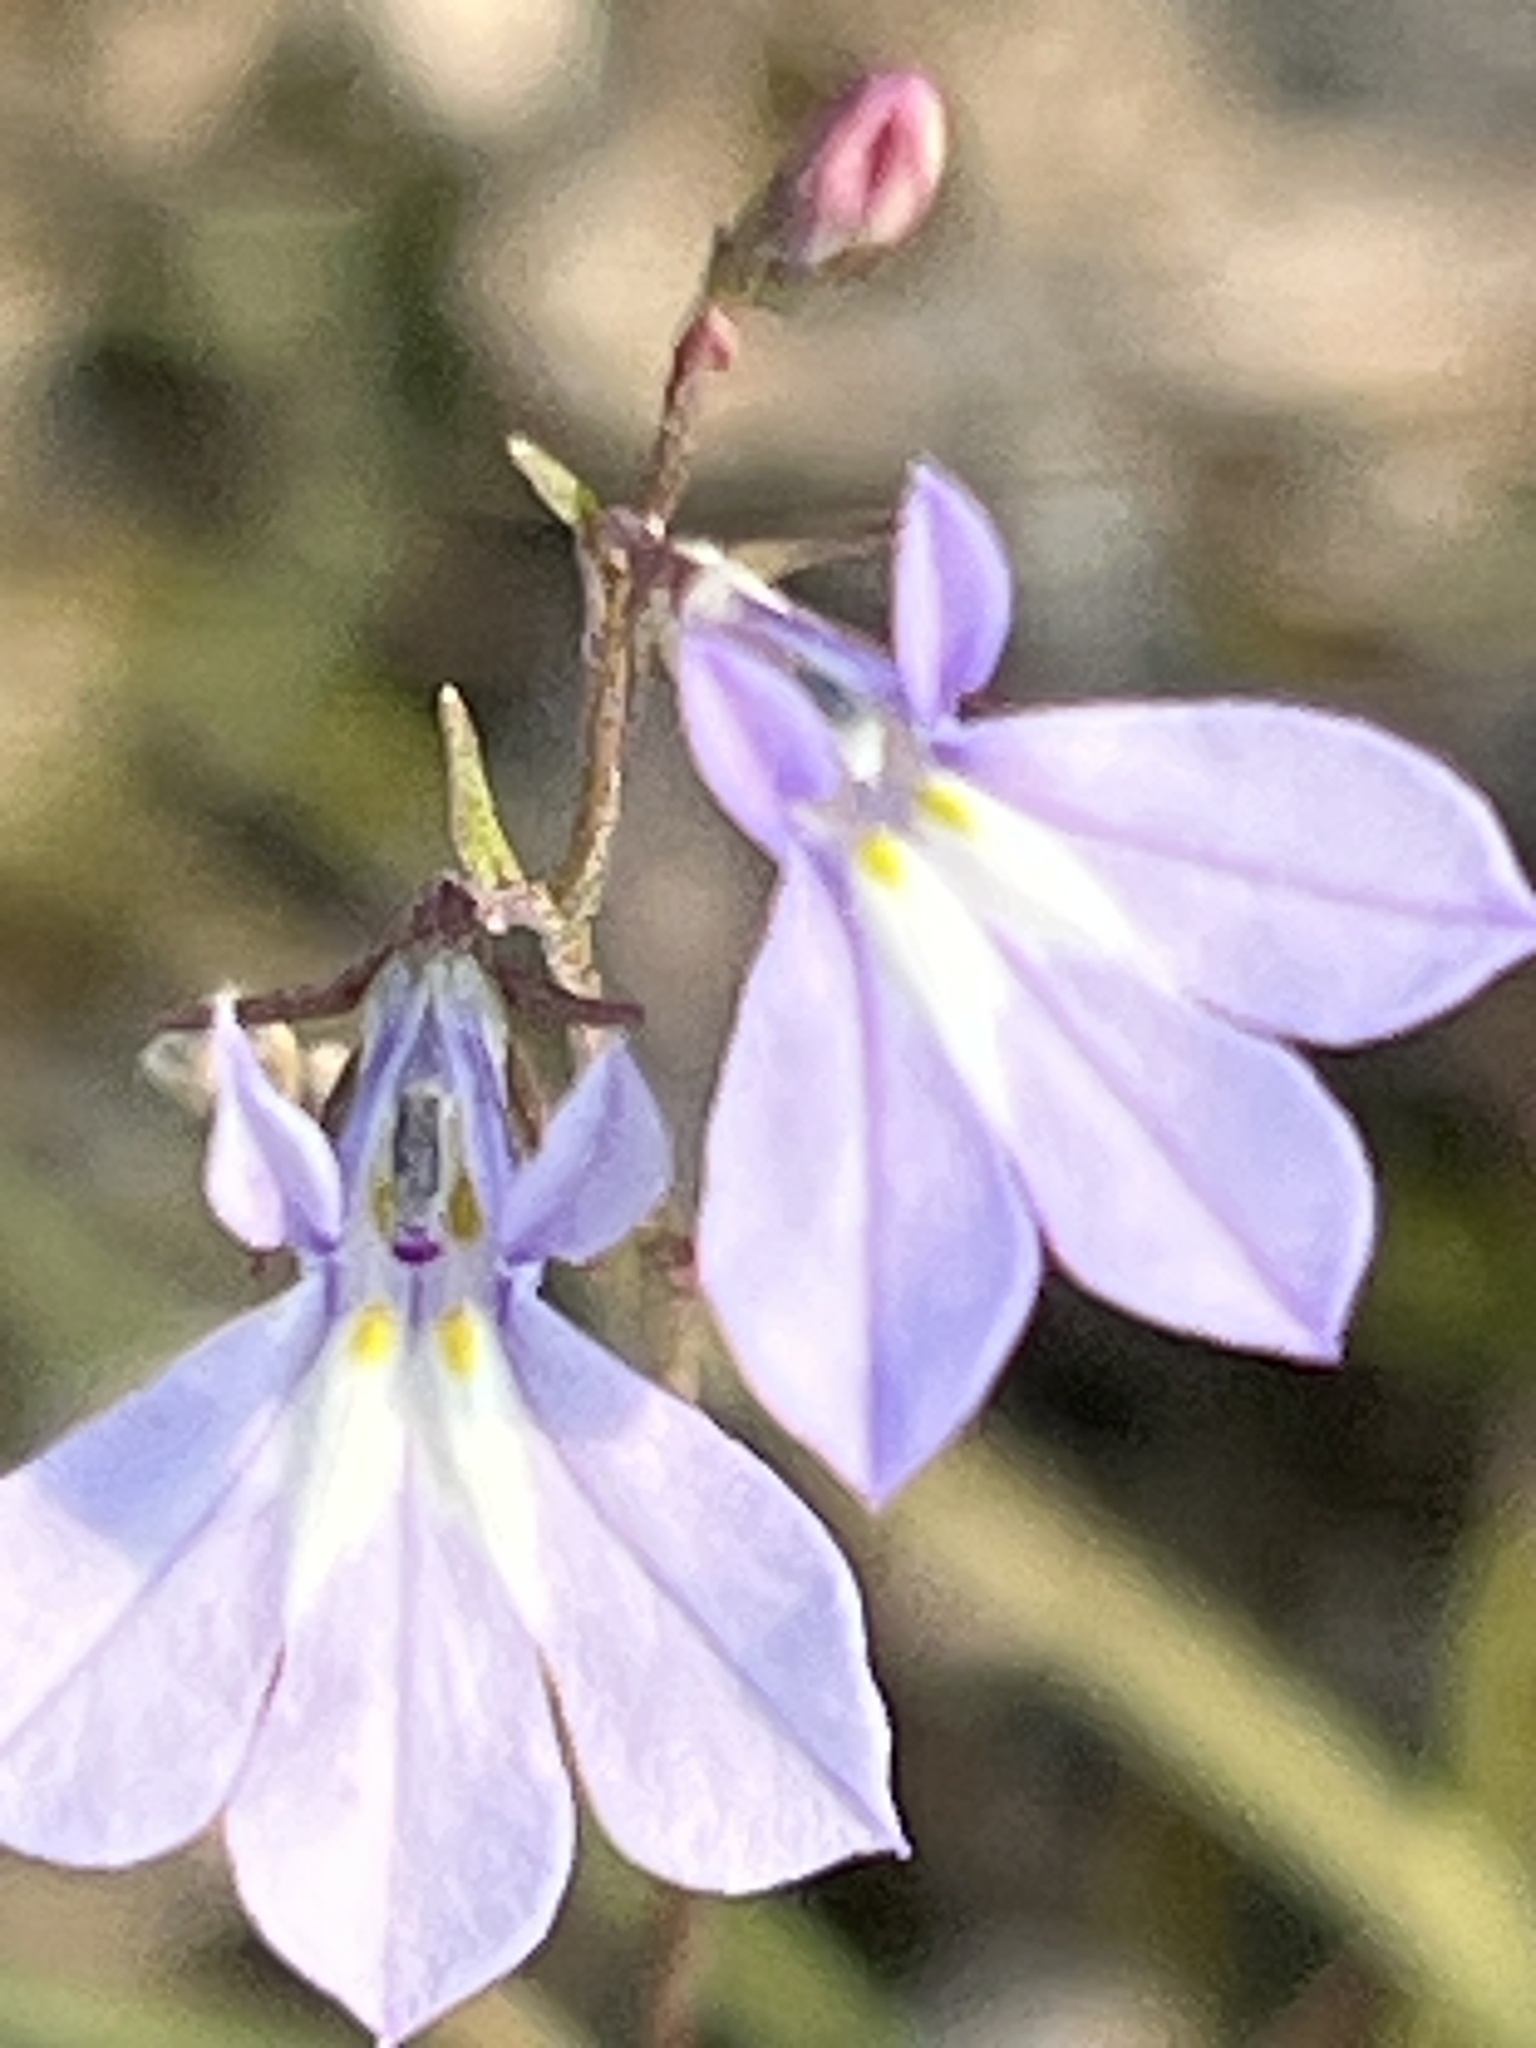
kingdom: Plantae
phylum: Tracheophyta
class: Magnoliopsida
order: Asterales
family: Campanulaceae
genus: Lobelia
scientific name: Lobelia kalmii
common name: Kalm's lobelia
